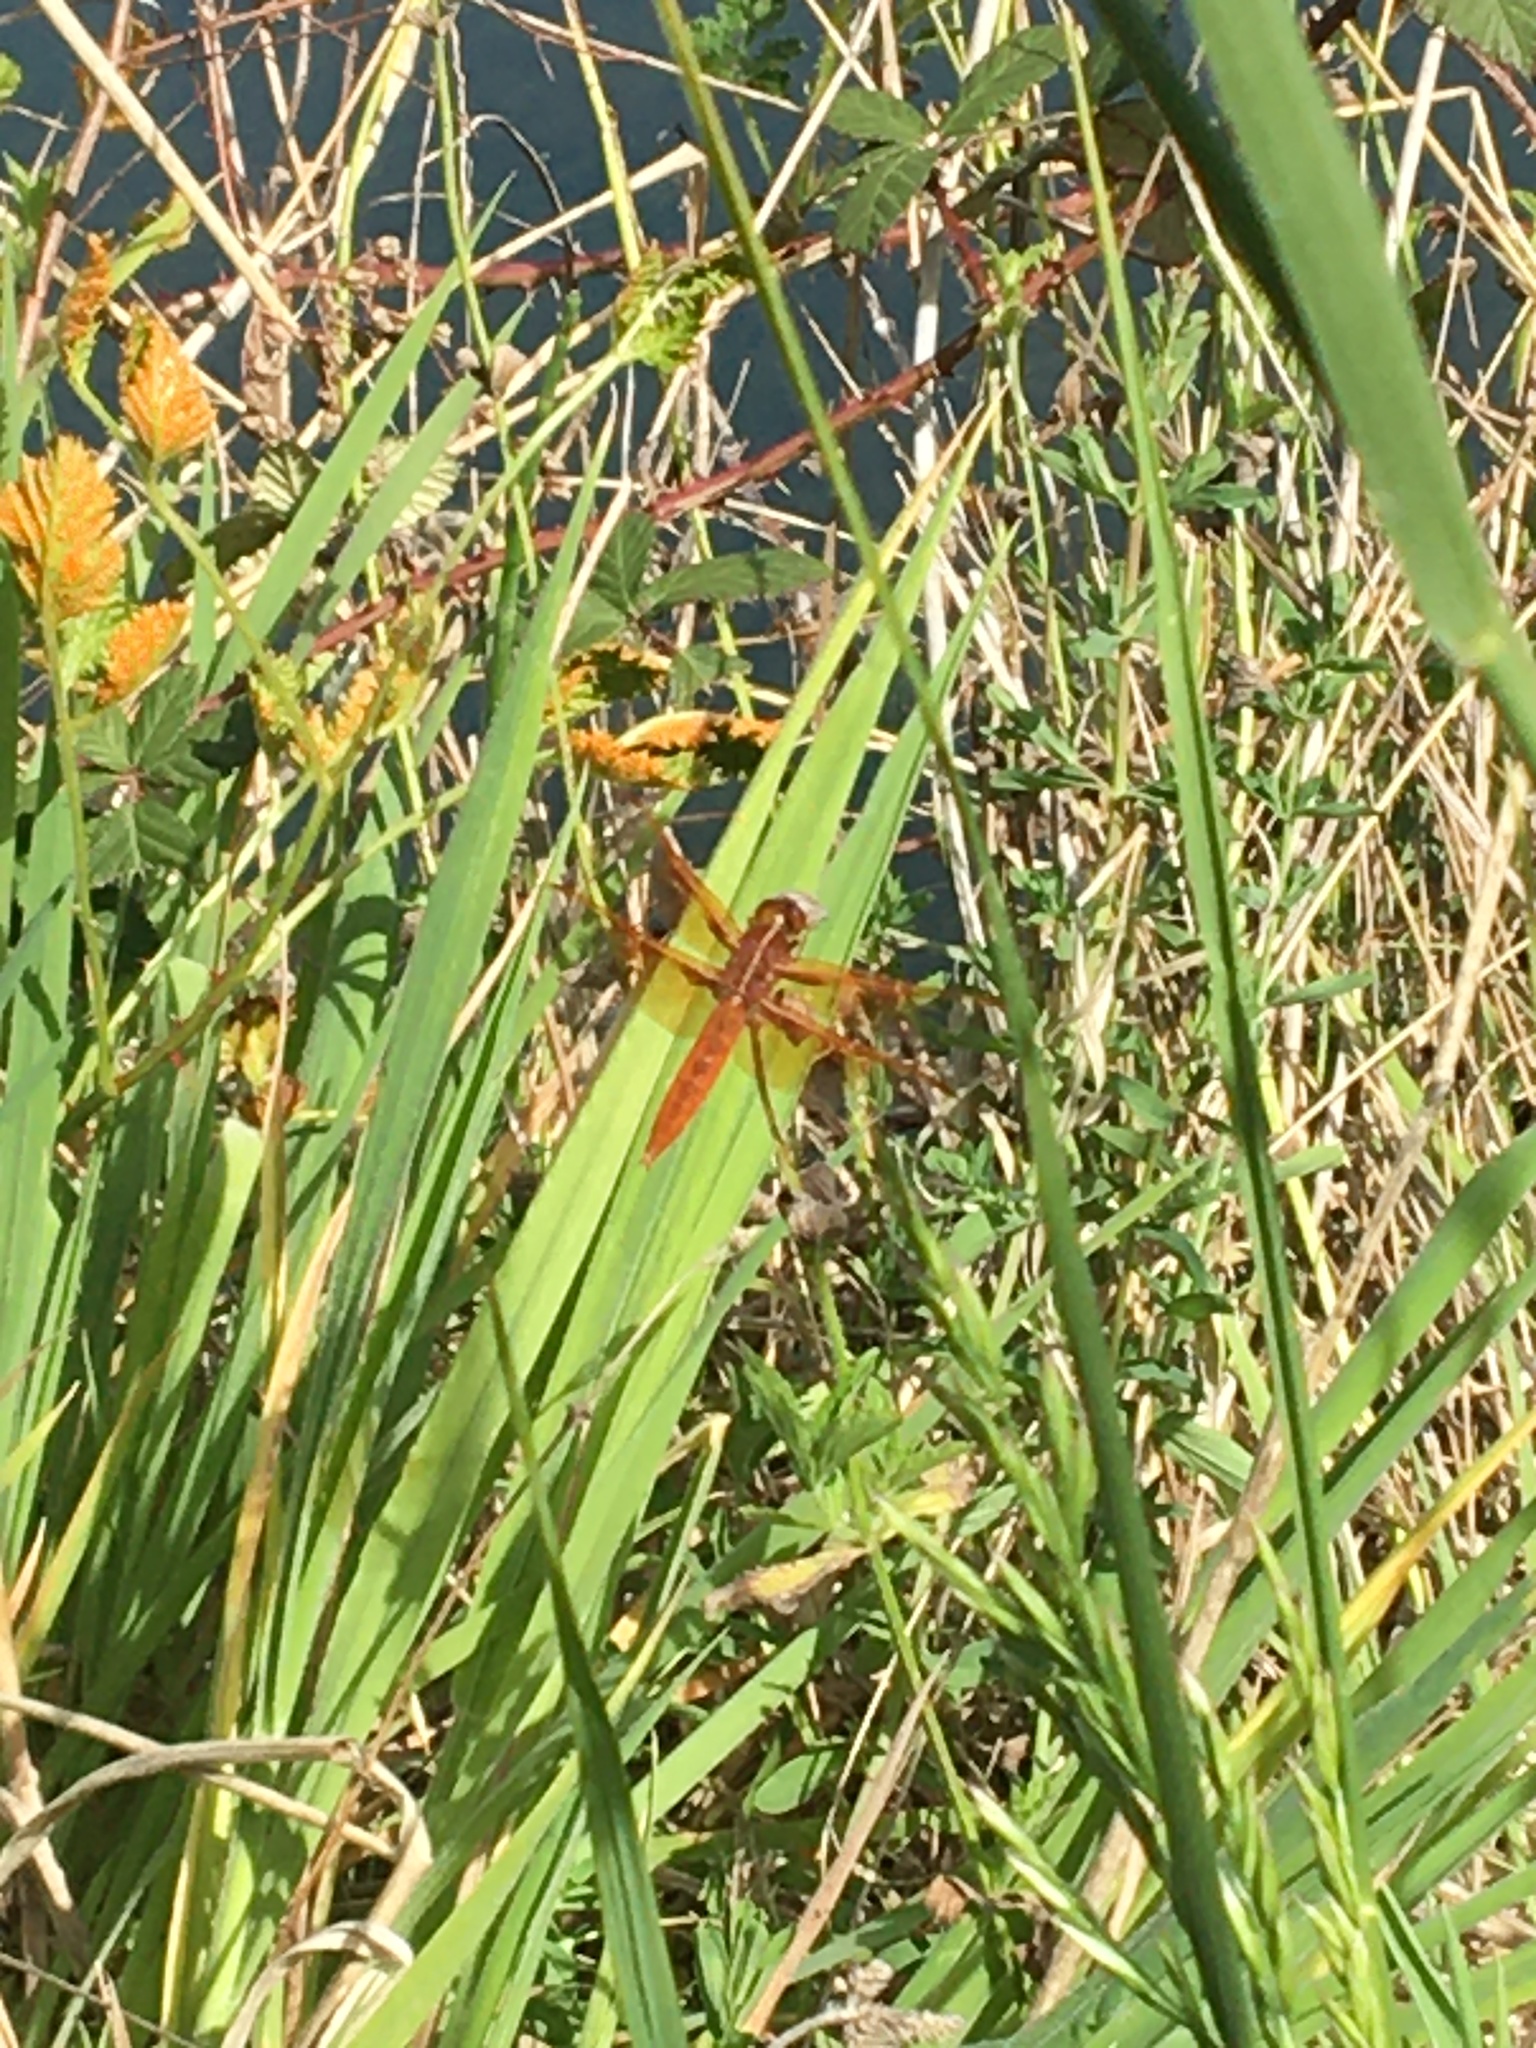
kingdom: Animalia
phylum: Arthropoda
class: Insecta
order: Odonata
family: Libellulidae
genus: Libellula
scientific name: Libellula saturata
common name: Flame skimmer
